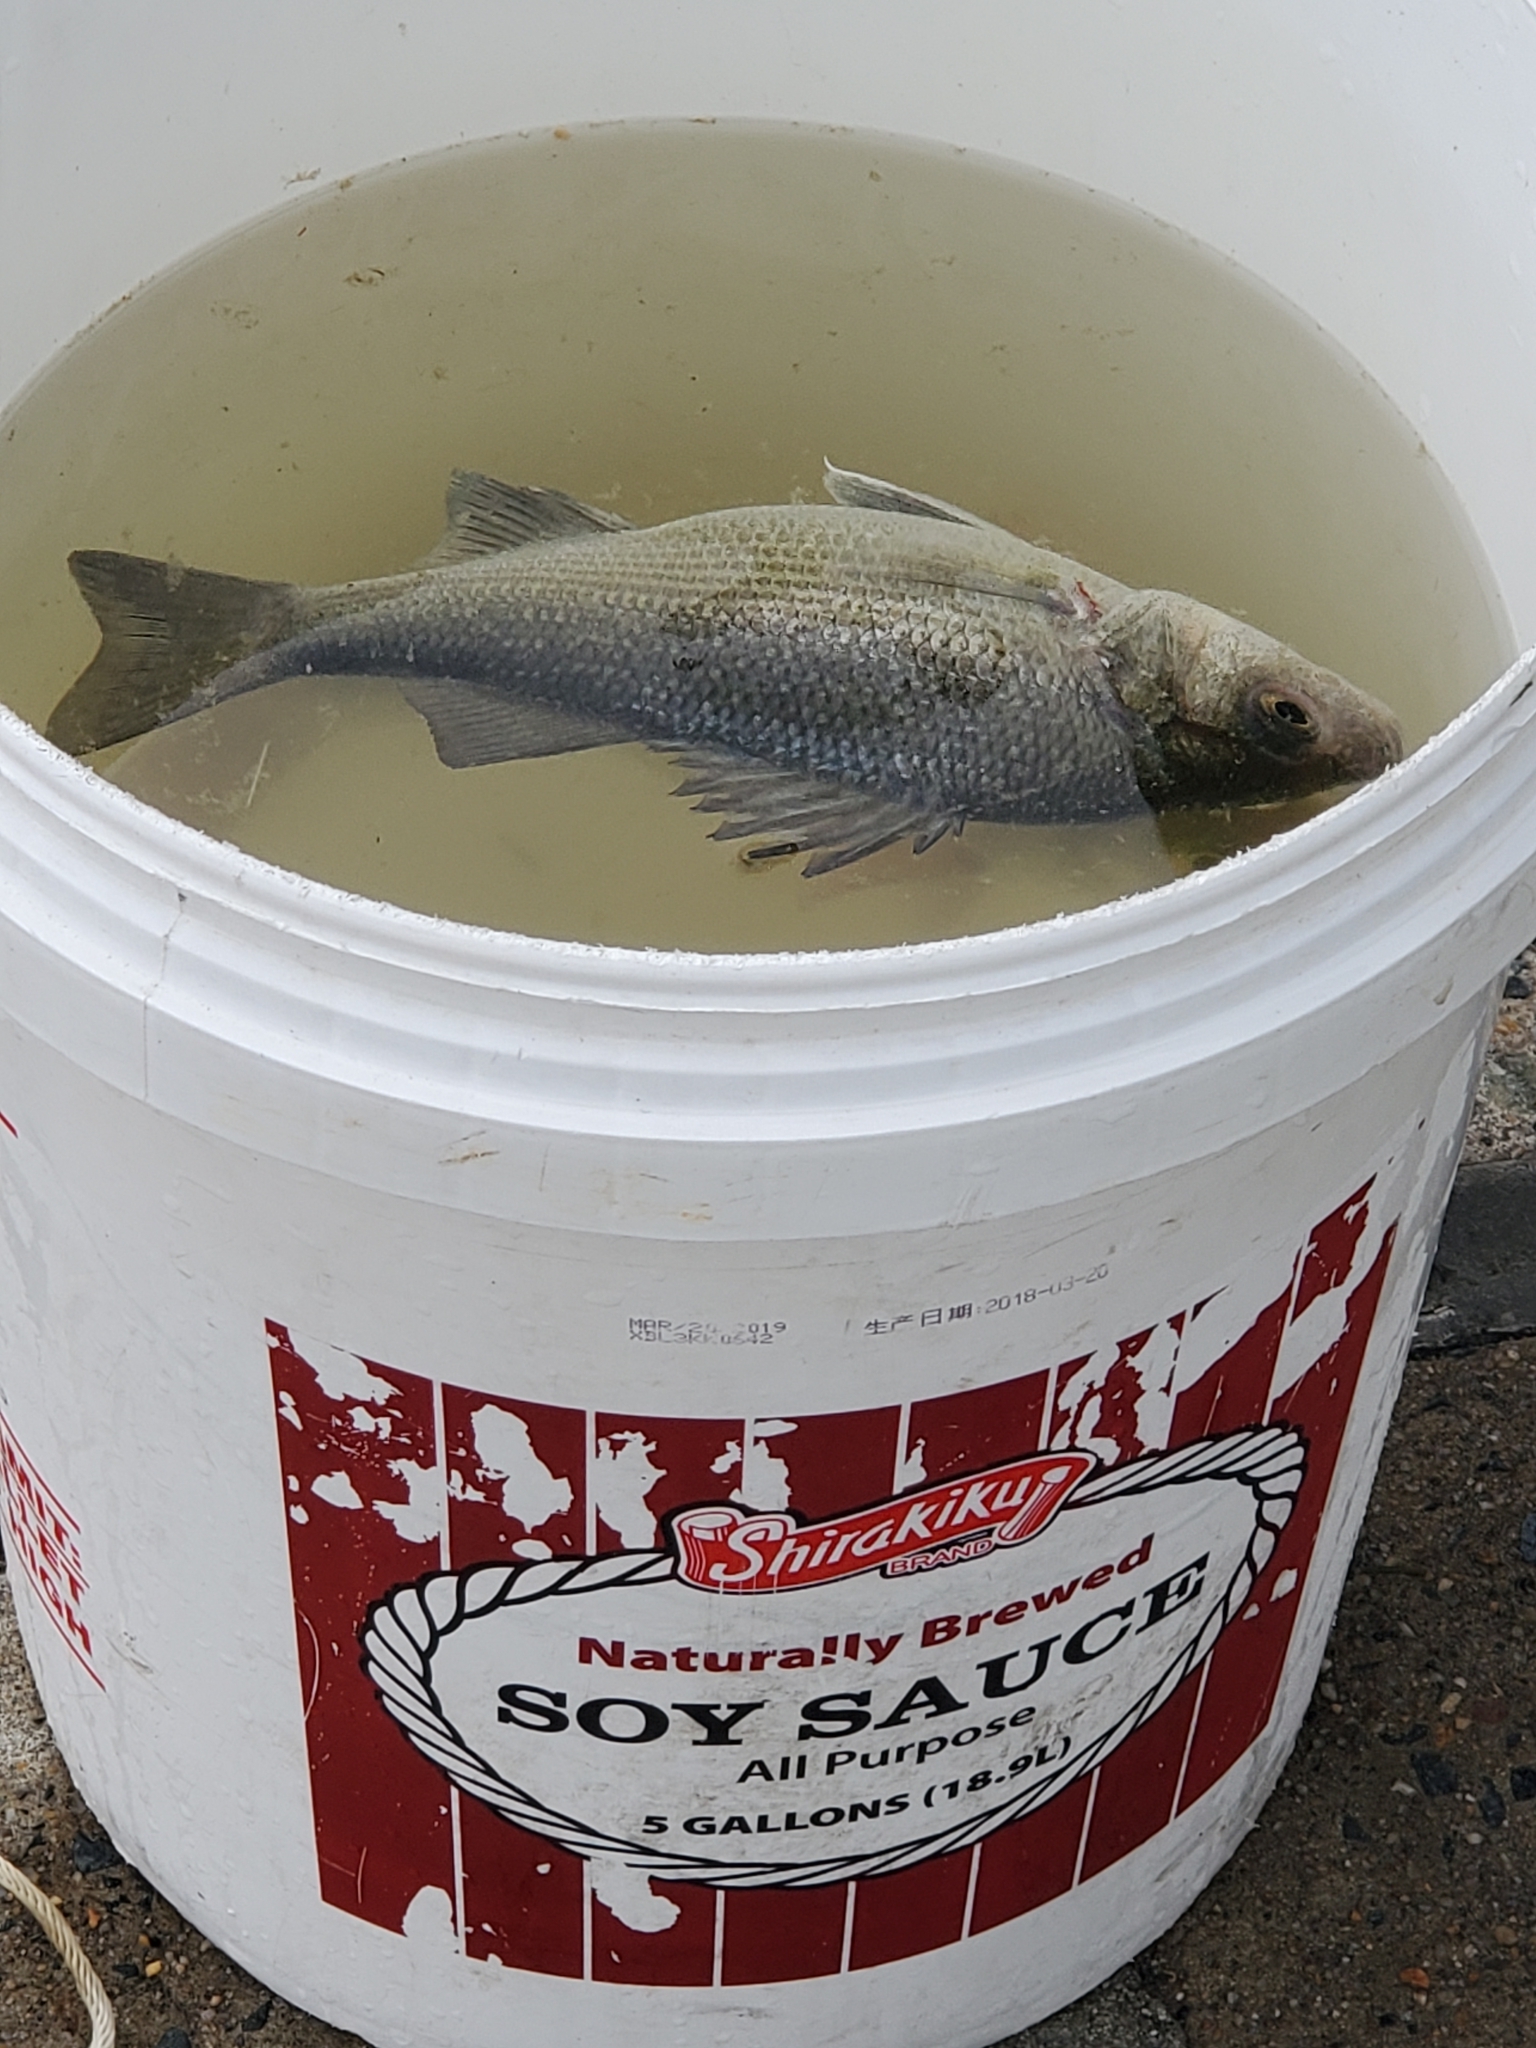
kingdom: Animalia
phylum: Chordata
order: Perciformes
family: Moronidae
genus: Morone
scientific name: Morone americana
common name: White perch
